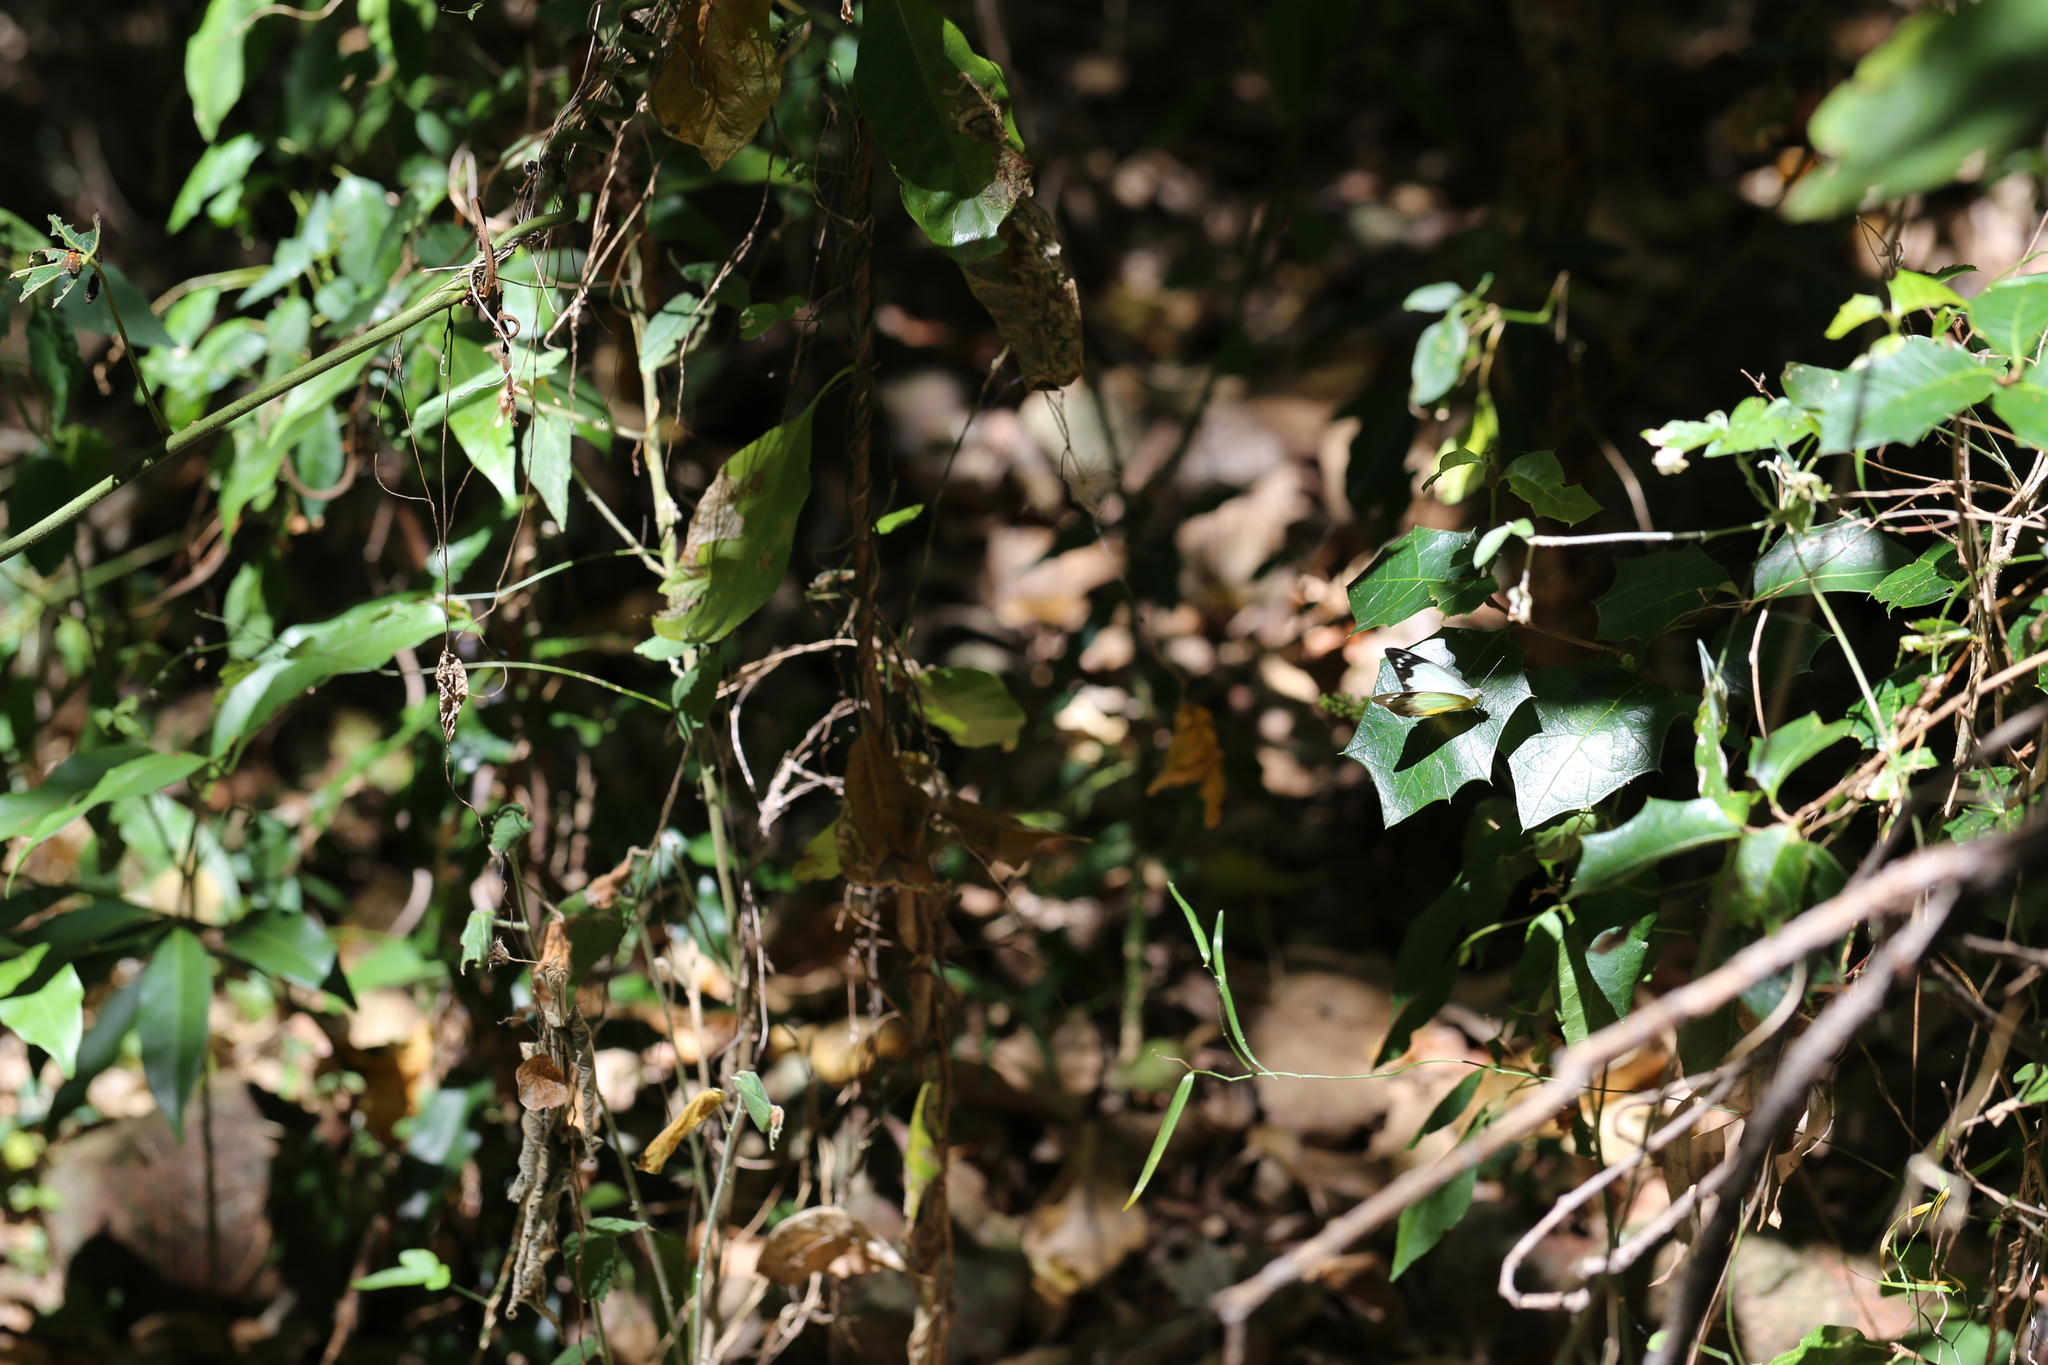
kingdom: Animalia
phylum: Arthropoda
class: Insecta
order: Lepidoptera
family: Pieridae
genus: Appias
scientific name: Appias paulina
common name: Ceylon lesser albatross
